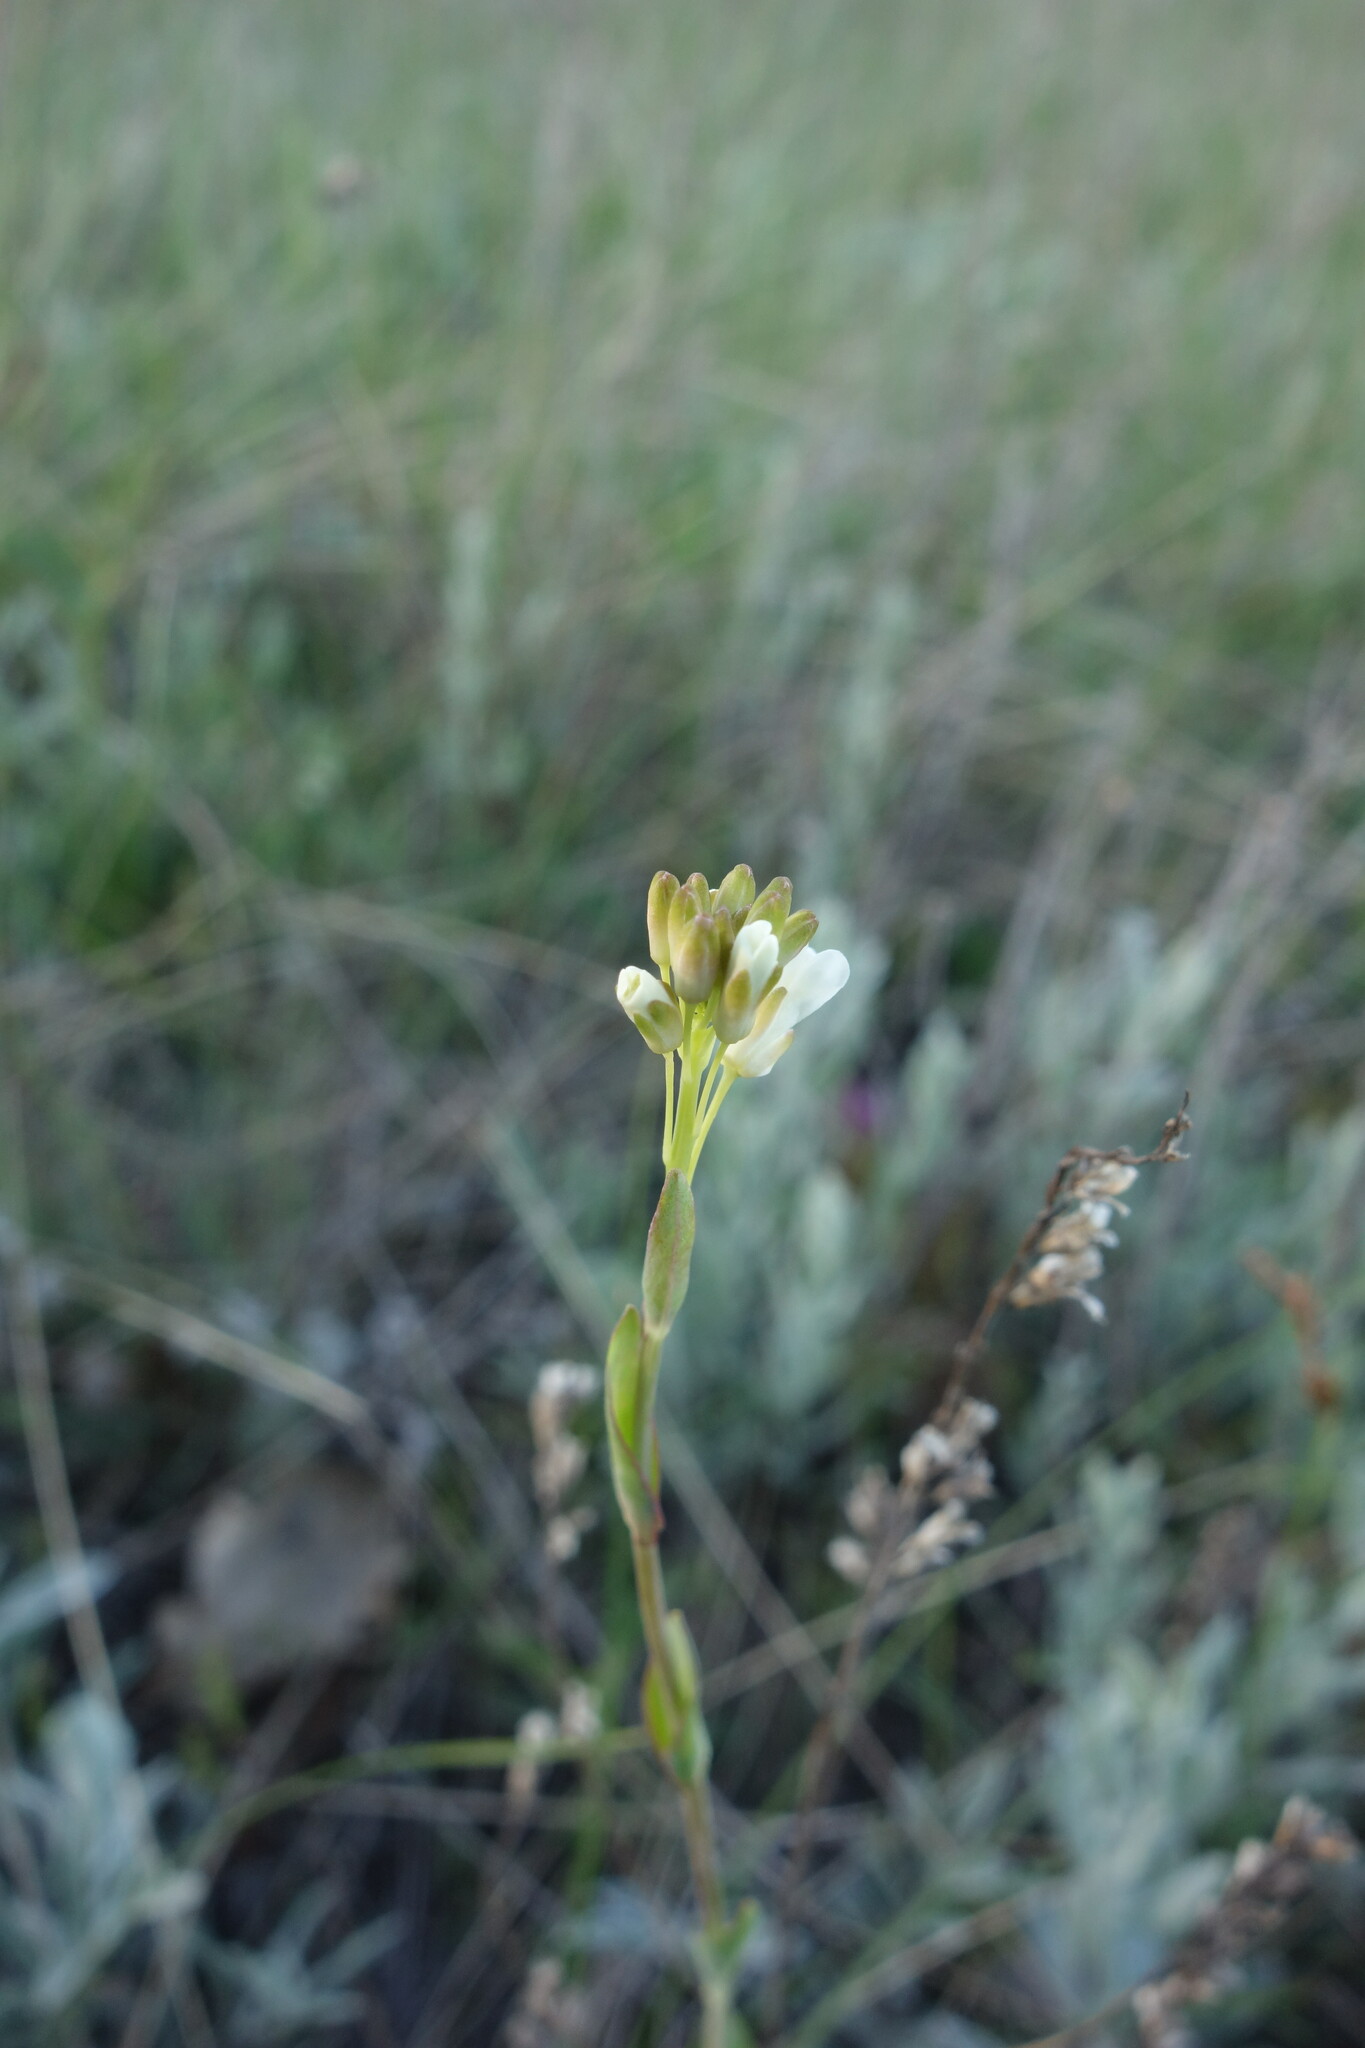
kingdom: Plantae
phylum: Tracheophyta
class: Magnoliopsida
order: Brassicales
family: Brassicaceae
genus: Turritis
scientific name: Turritis glabra
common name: Tower rockcress
